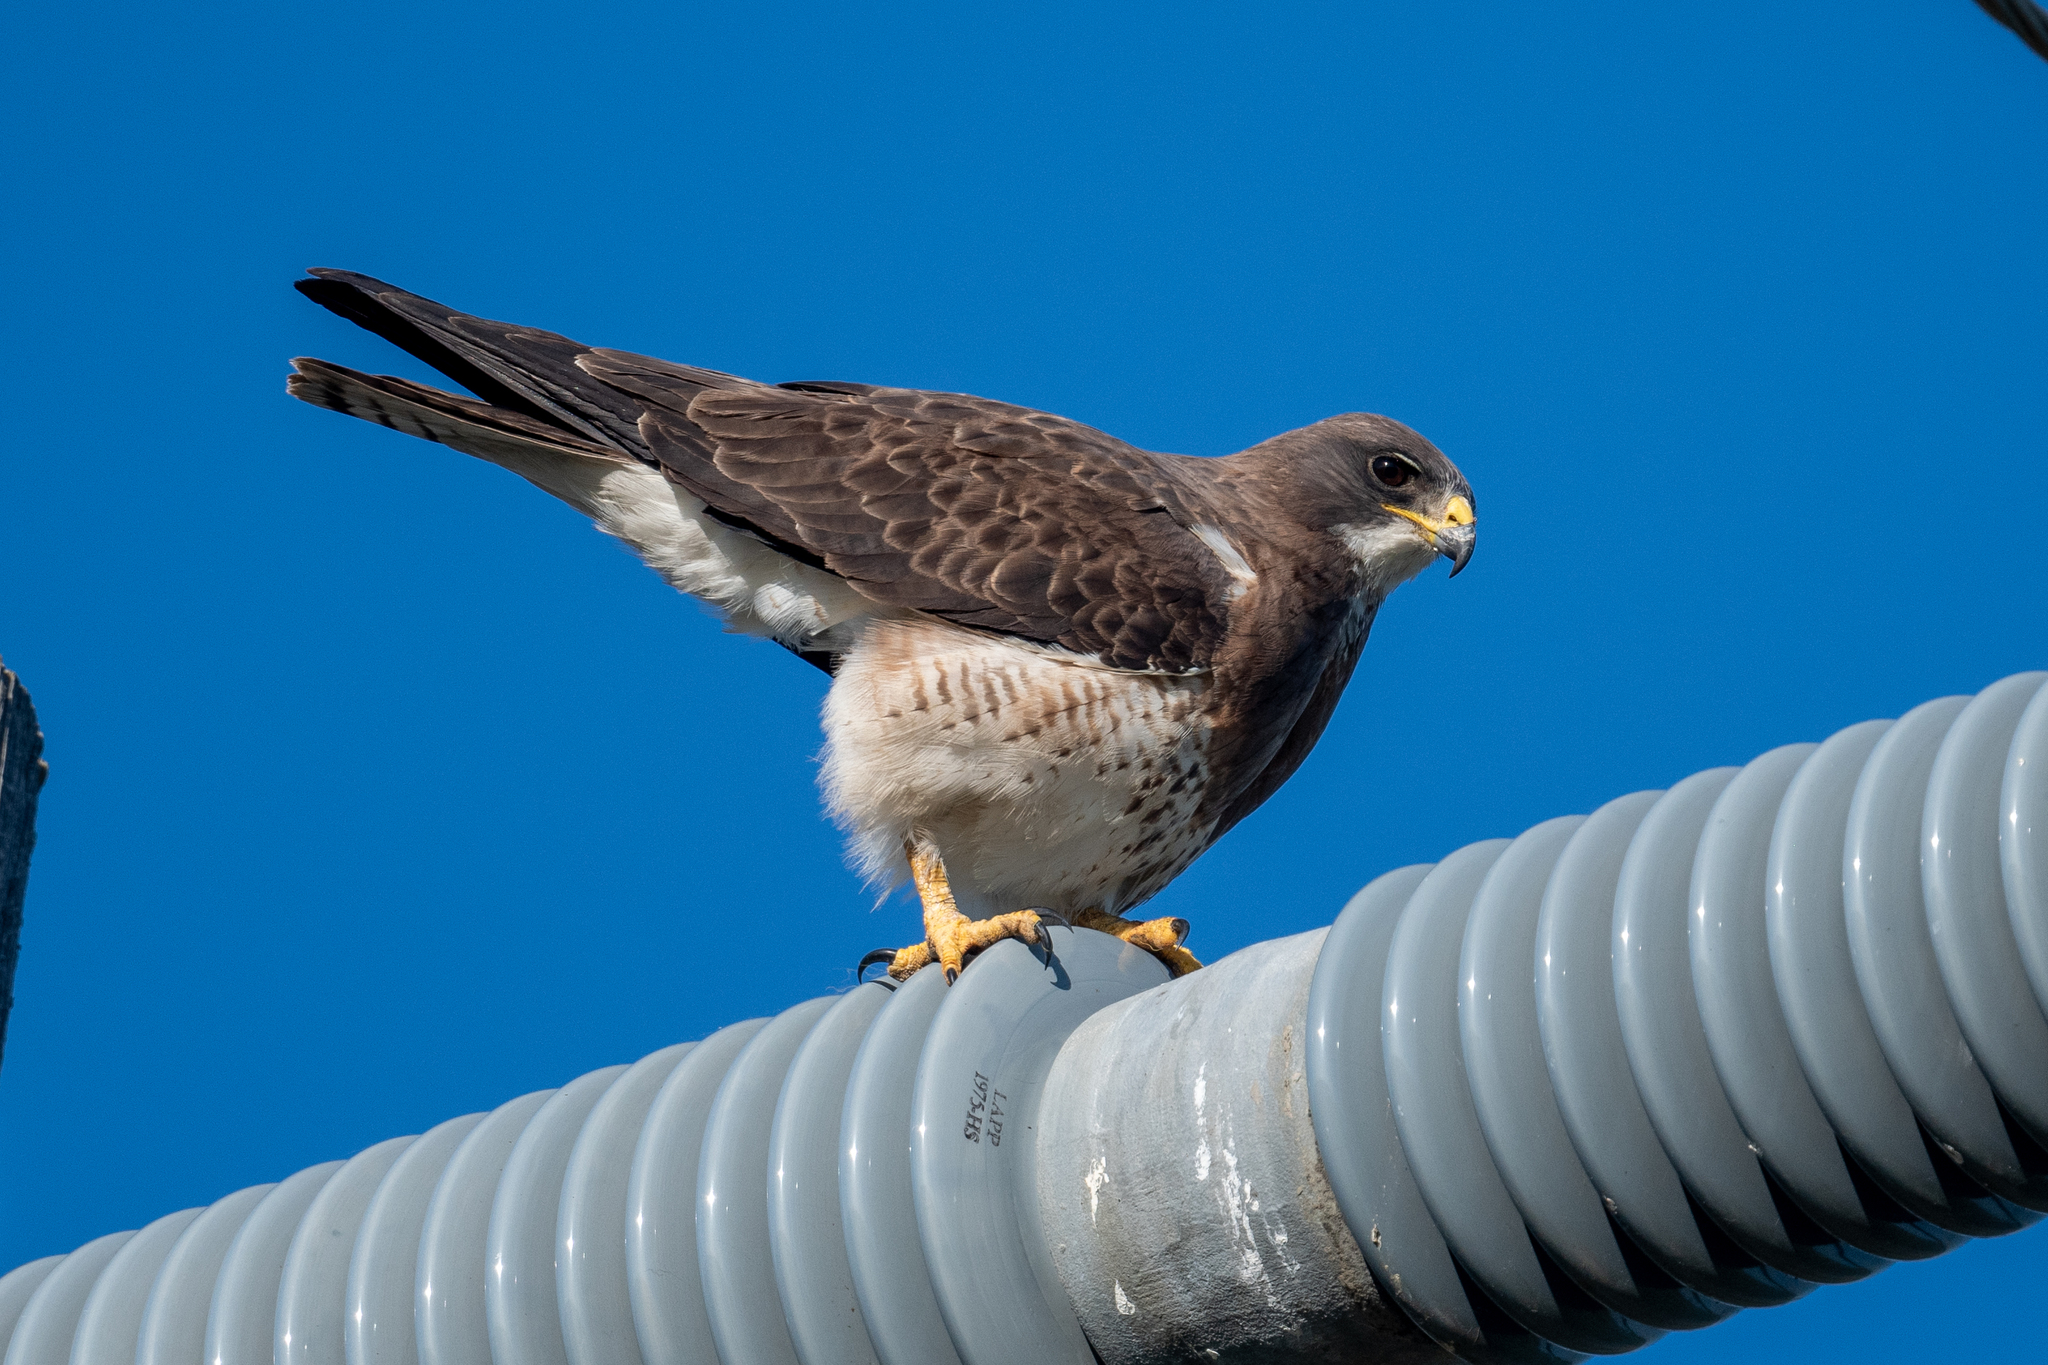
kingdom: Animalia
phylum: Chordata
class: Aves
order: Accipitriformes
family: Accipitridae
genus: Buteo
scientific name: Buteo swainsoni
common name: Swainson's hawk
